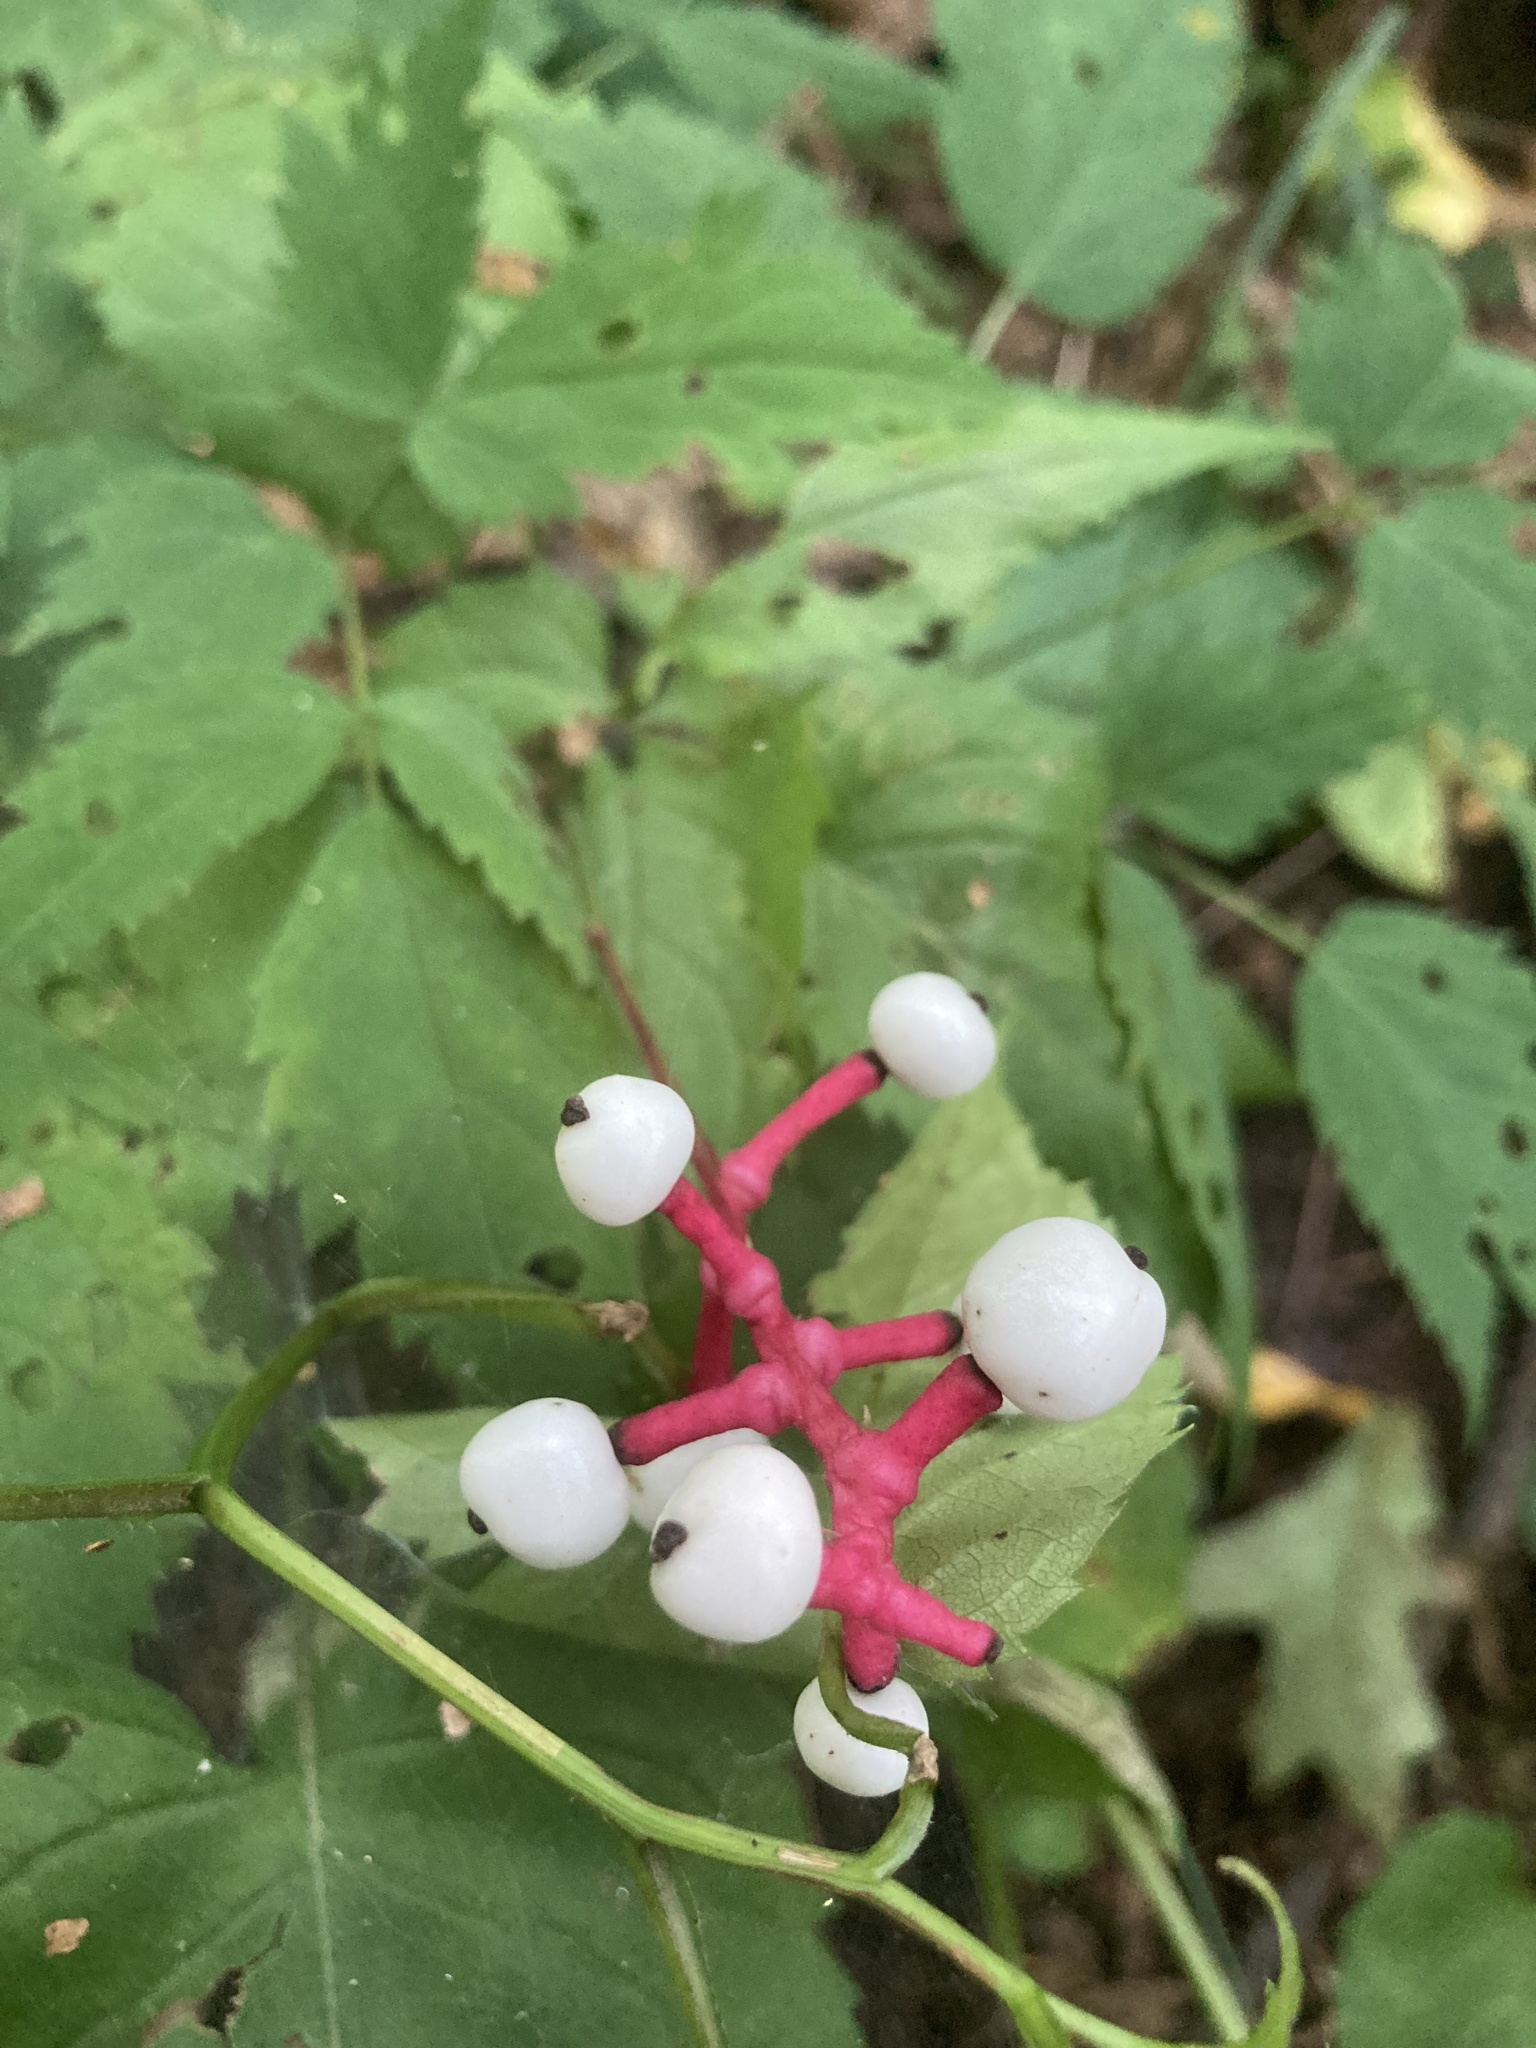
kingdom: Plantae
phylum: Tracheophyta
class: Magnoliopsida
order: Ranunculales
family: Ranunculaceae
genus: Actaea
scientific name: Actaea pachypoda
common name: Doll's-eyes
